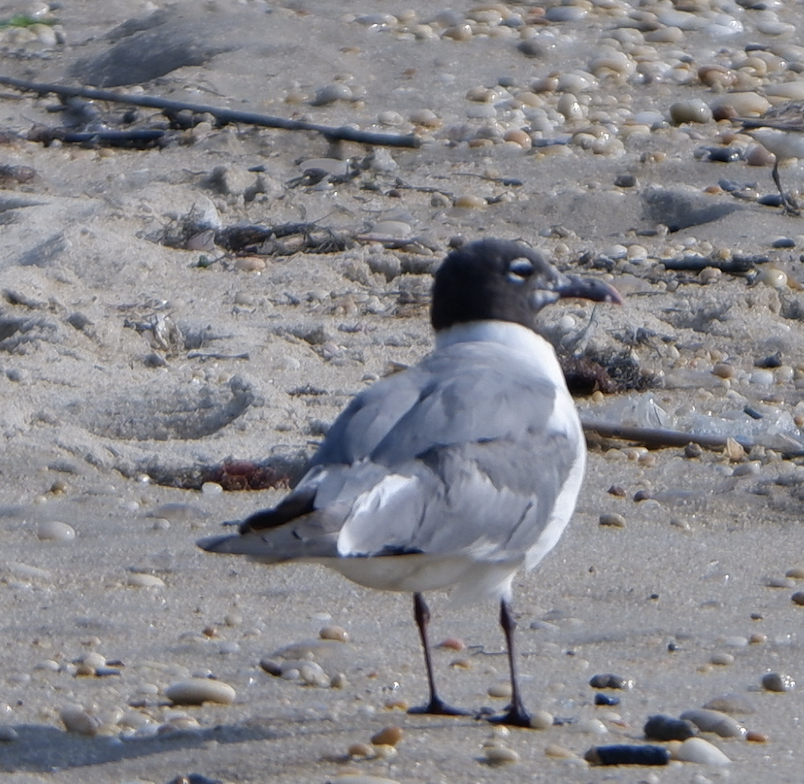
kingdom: Animalia
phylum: Chordata
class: Aves
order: Charadriiformes
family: Laridae
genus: Leucophaeus
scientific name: Leucophaeus atricilla
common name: Laughing gull
